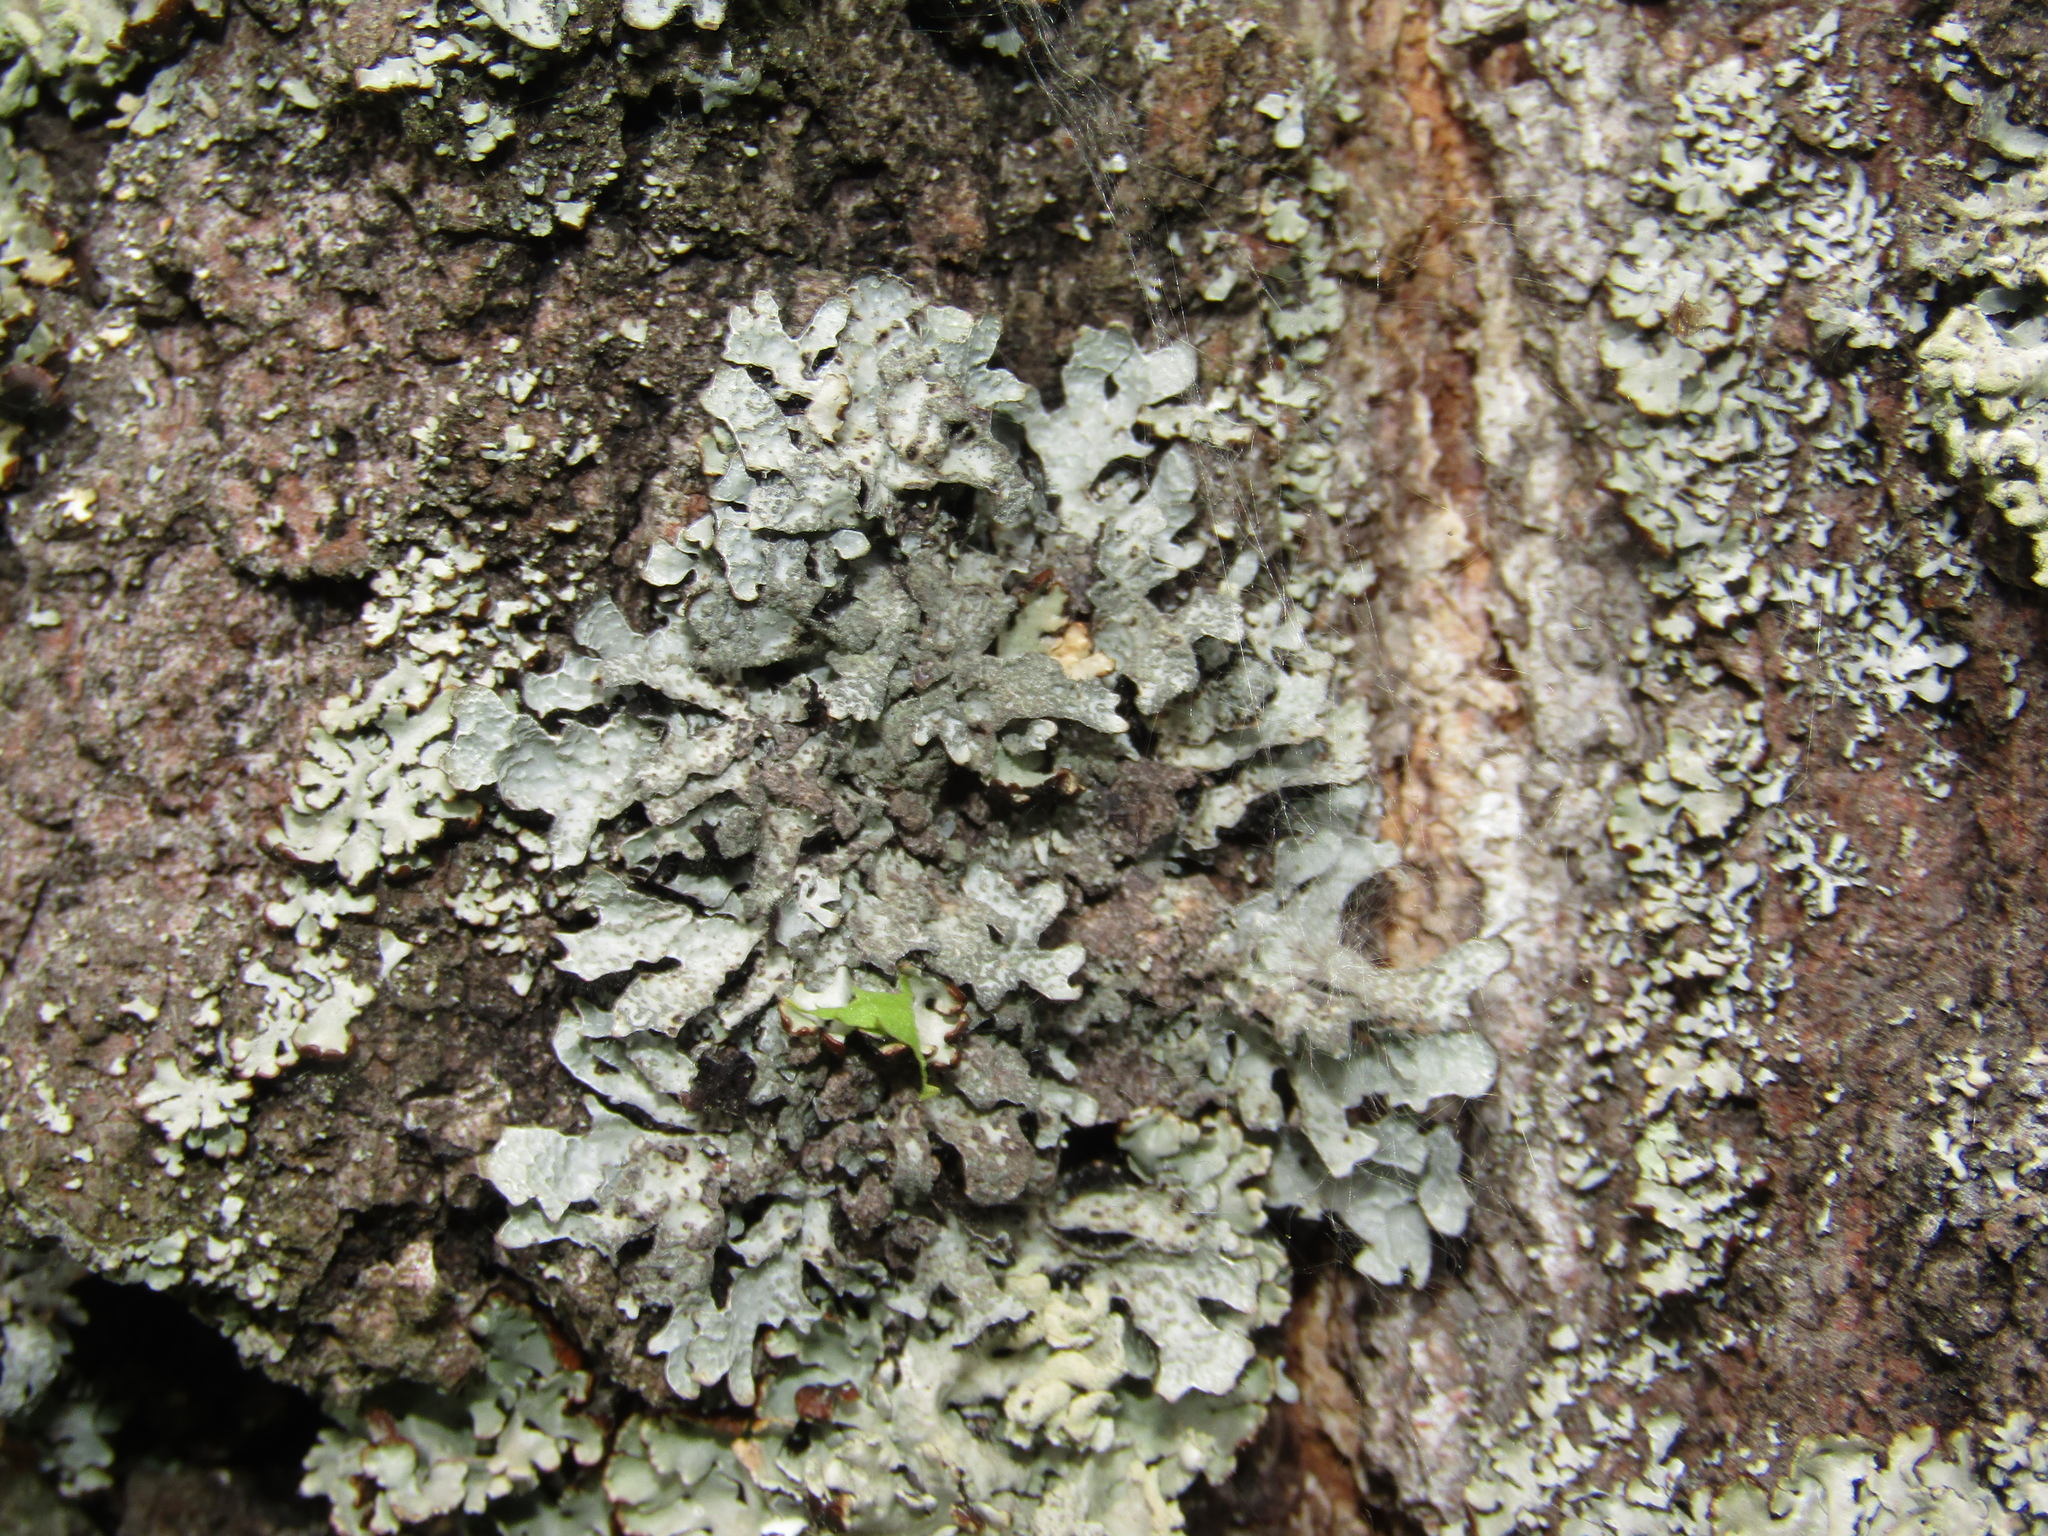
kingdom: Fungi
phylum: Ascomycota
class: Lecanoromycetes
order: Lecanorales
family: Parmeliaceae
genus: Parmelia
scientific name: Parmelia sulcata
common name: Netted shield lichen
